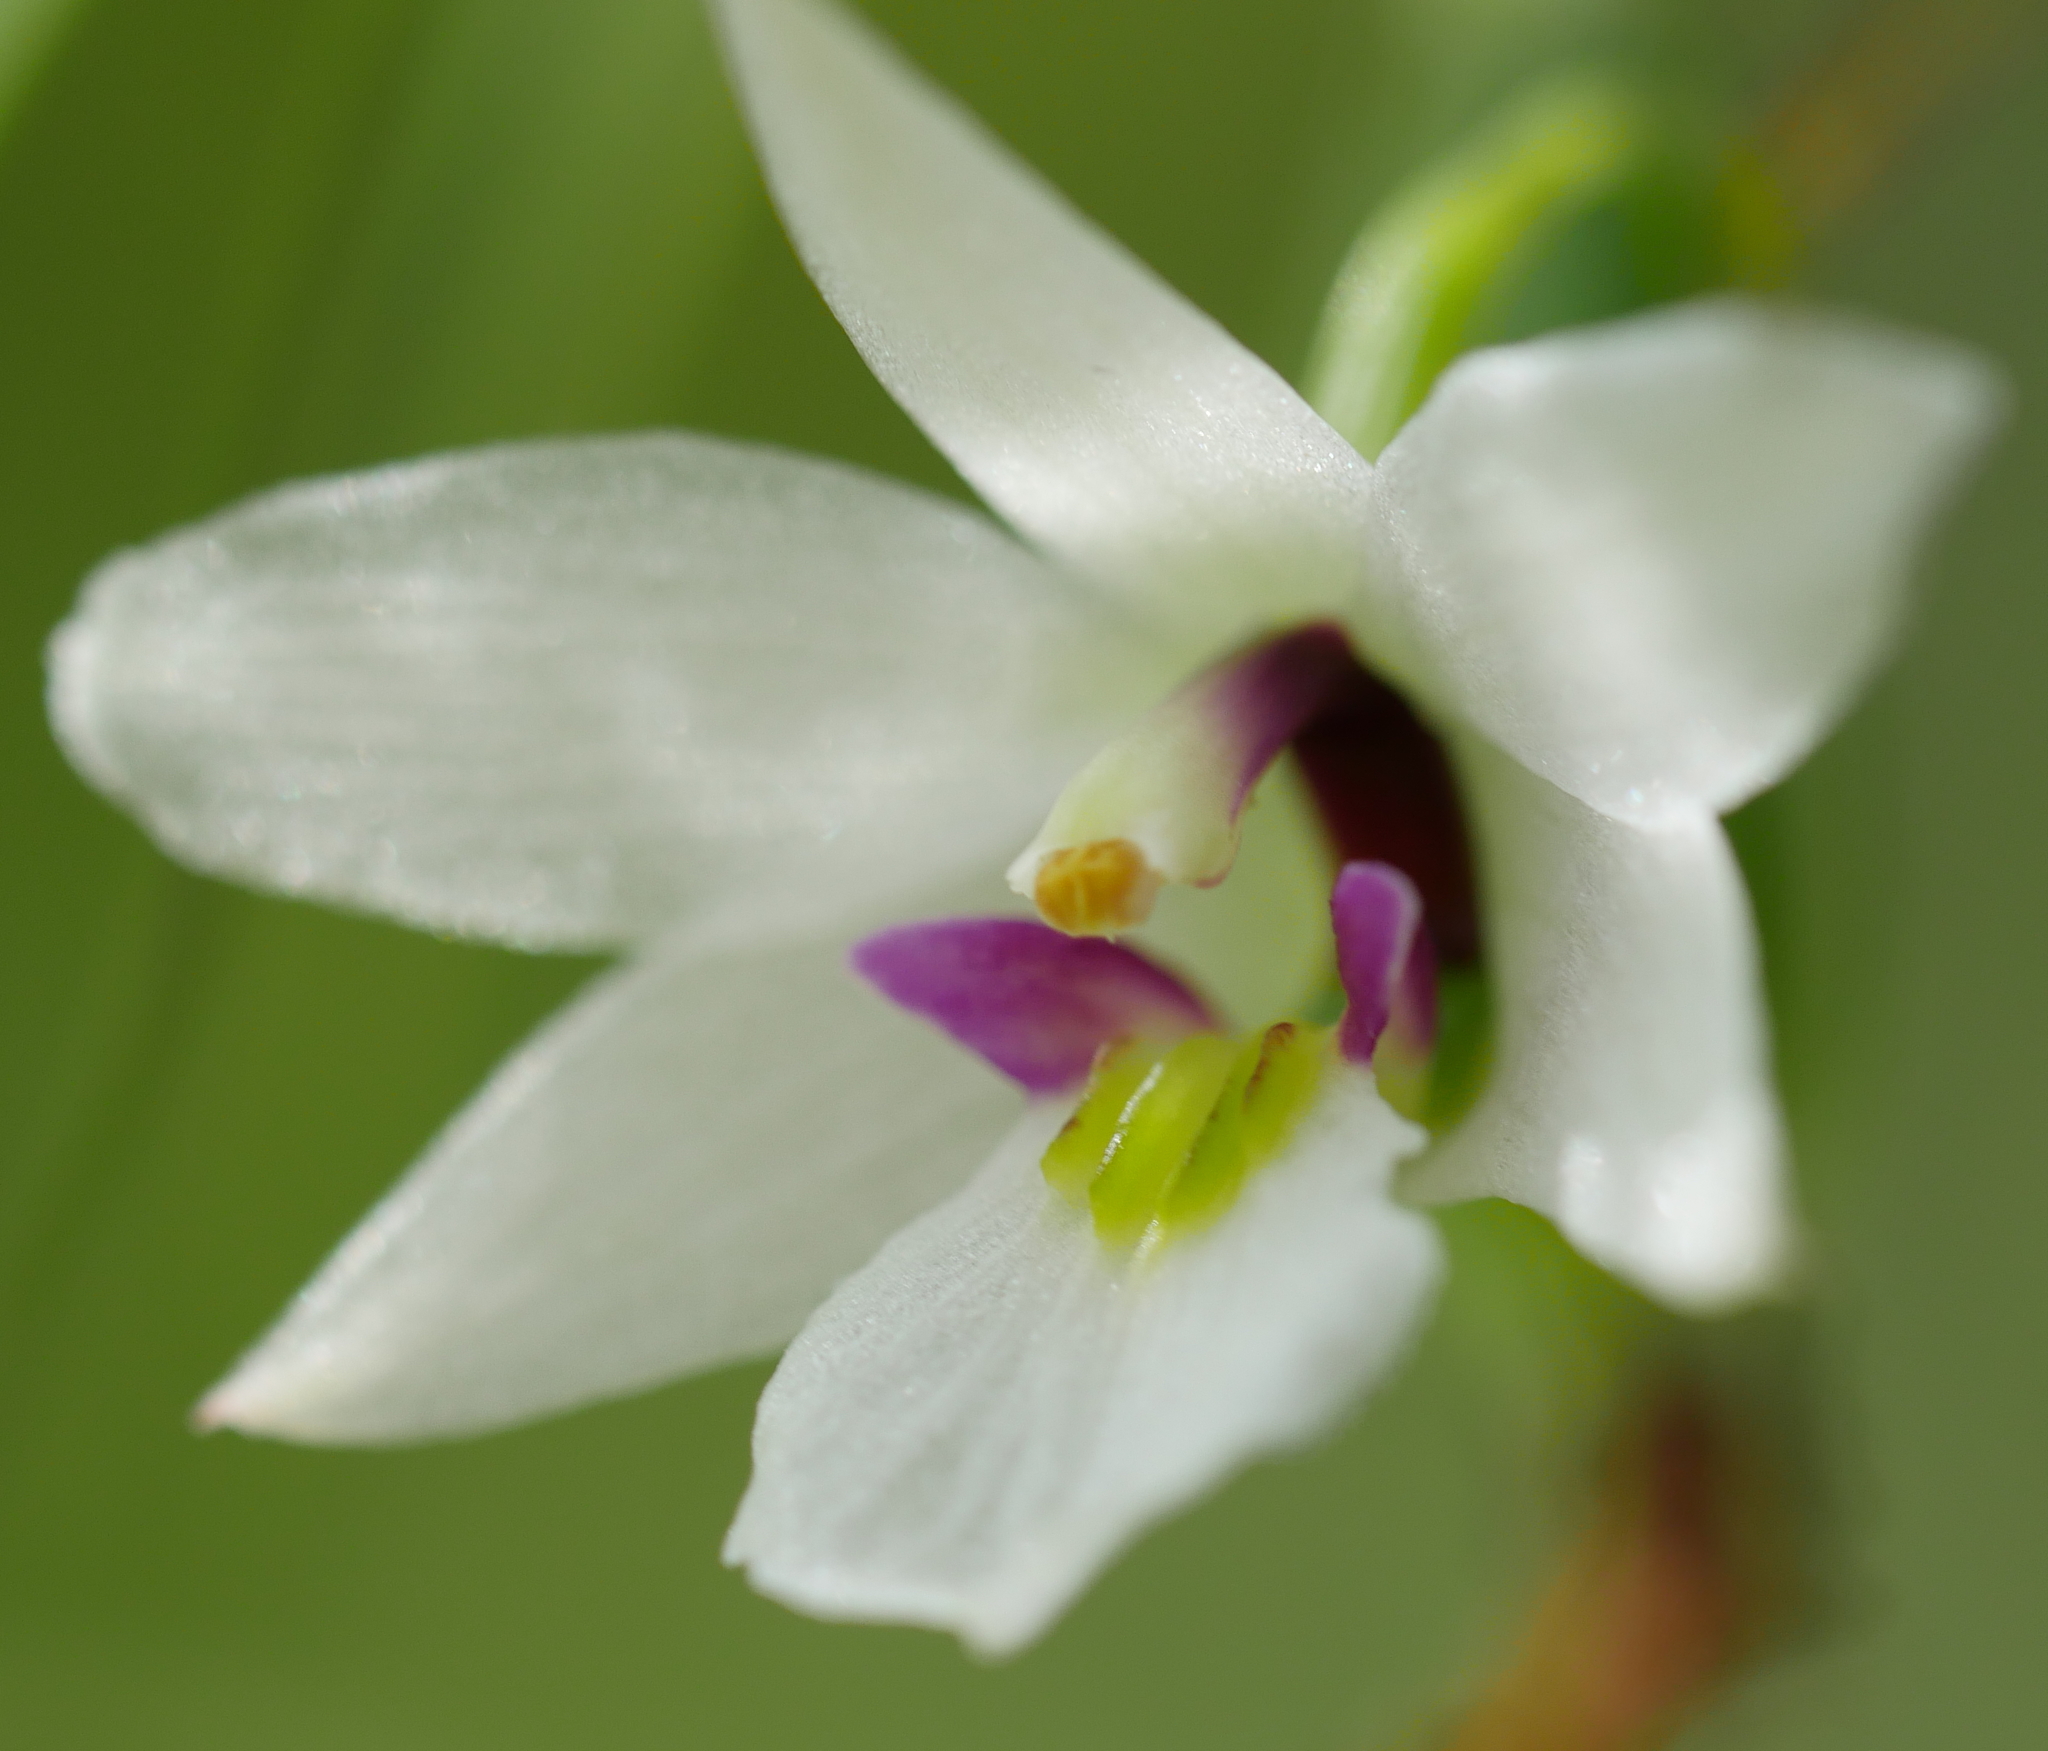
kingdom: Plantae
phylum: Tracheophyta
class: Liliopsida
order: Asparagales
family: Orchidaceae
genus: Dendrobium
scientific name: Dendrobium cunninghamii
